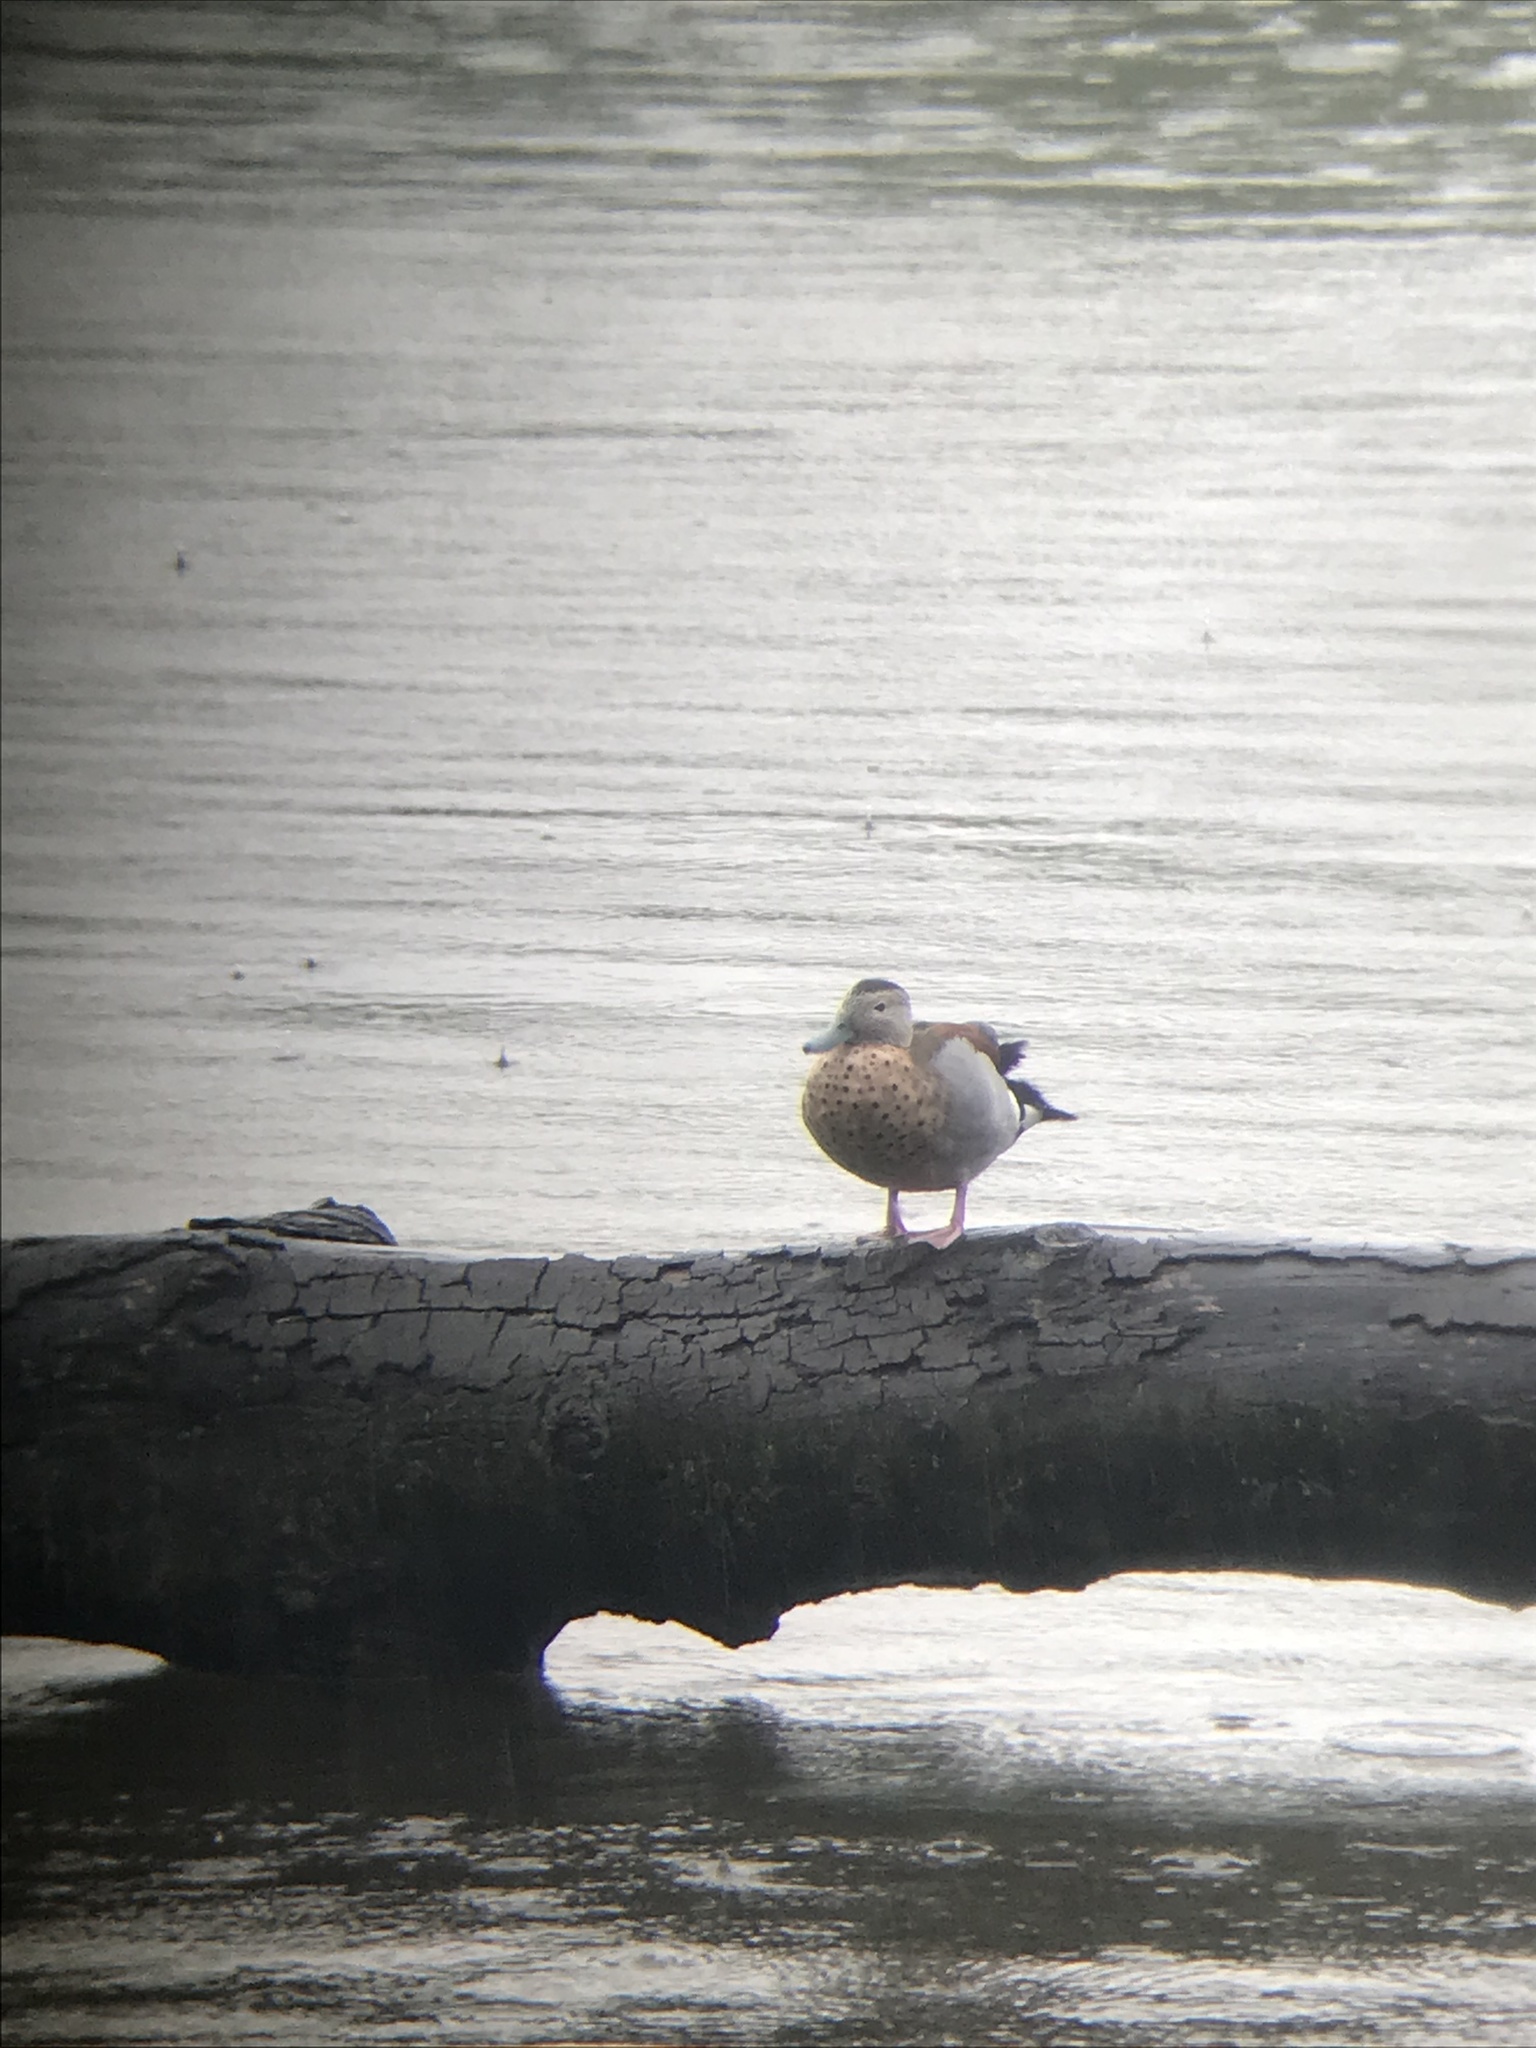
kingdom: Animalia
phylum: Chordata
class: Aves
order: Anseriformes
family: Anatidae
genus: Callonetta
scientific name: Callonetta leucophrys
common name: Ringed teal
